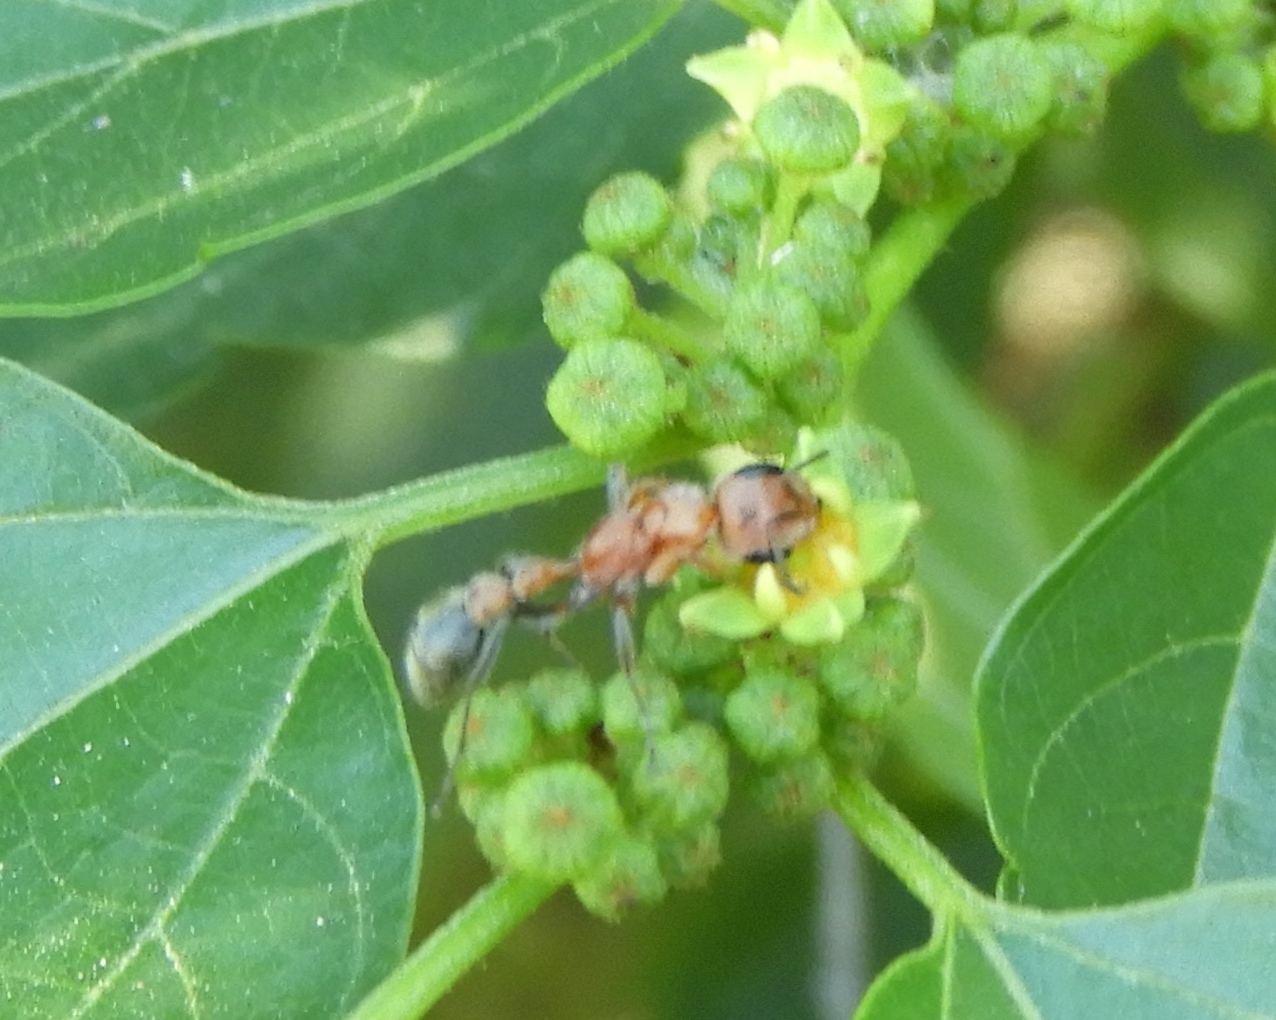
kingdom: Animalia
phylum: Arthropoda
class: Insecta
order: Hymenoptera
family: Formicidae
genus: Pseudomyrmex
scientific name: Pseudomyrmex
